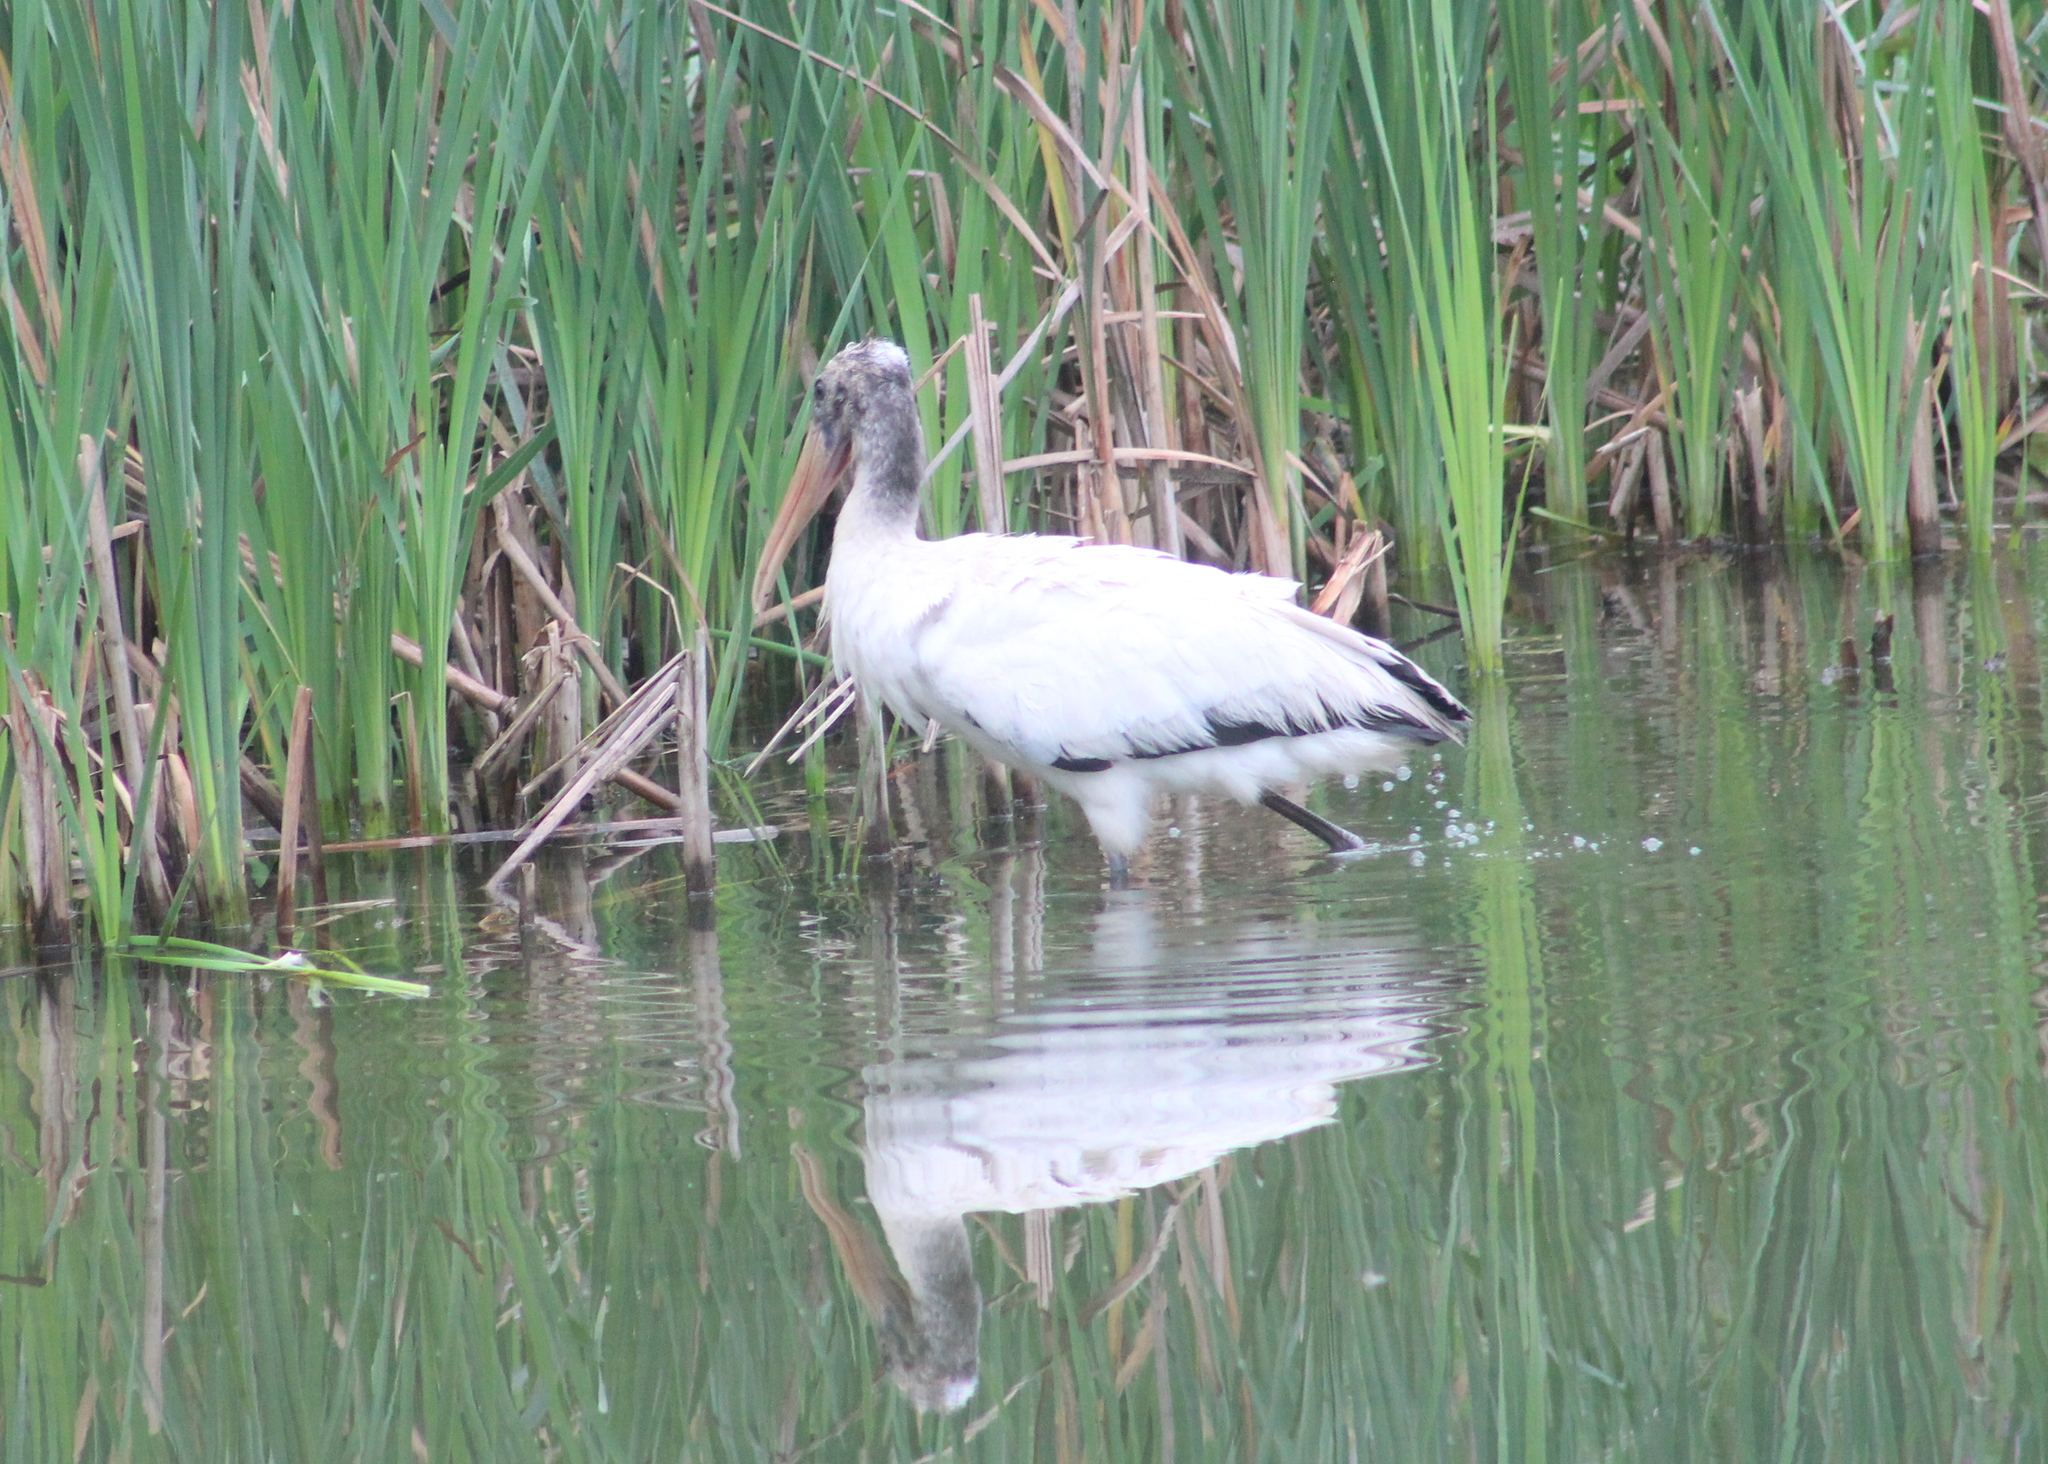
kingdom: Animalia
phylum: Chordata
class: Aves
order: Ciconiiformes
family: Ciconiidae
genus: Mycteria
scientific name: Mycteria americana
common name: Wood stork
